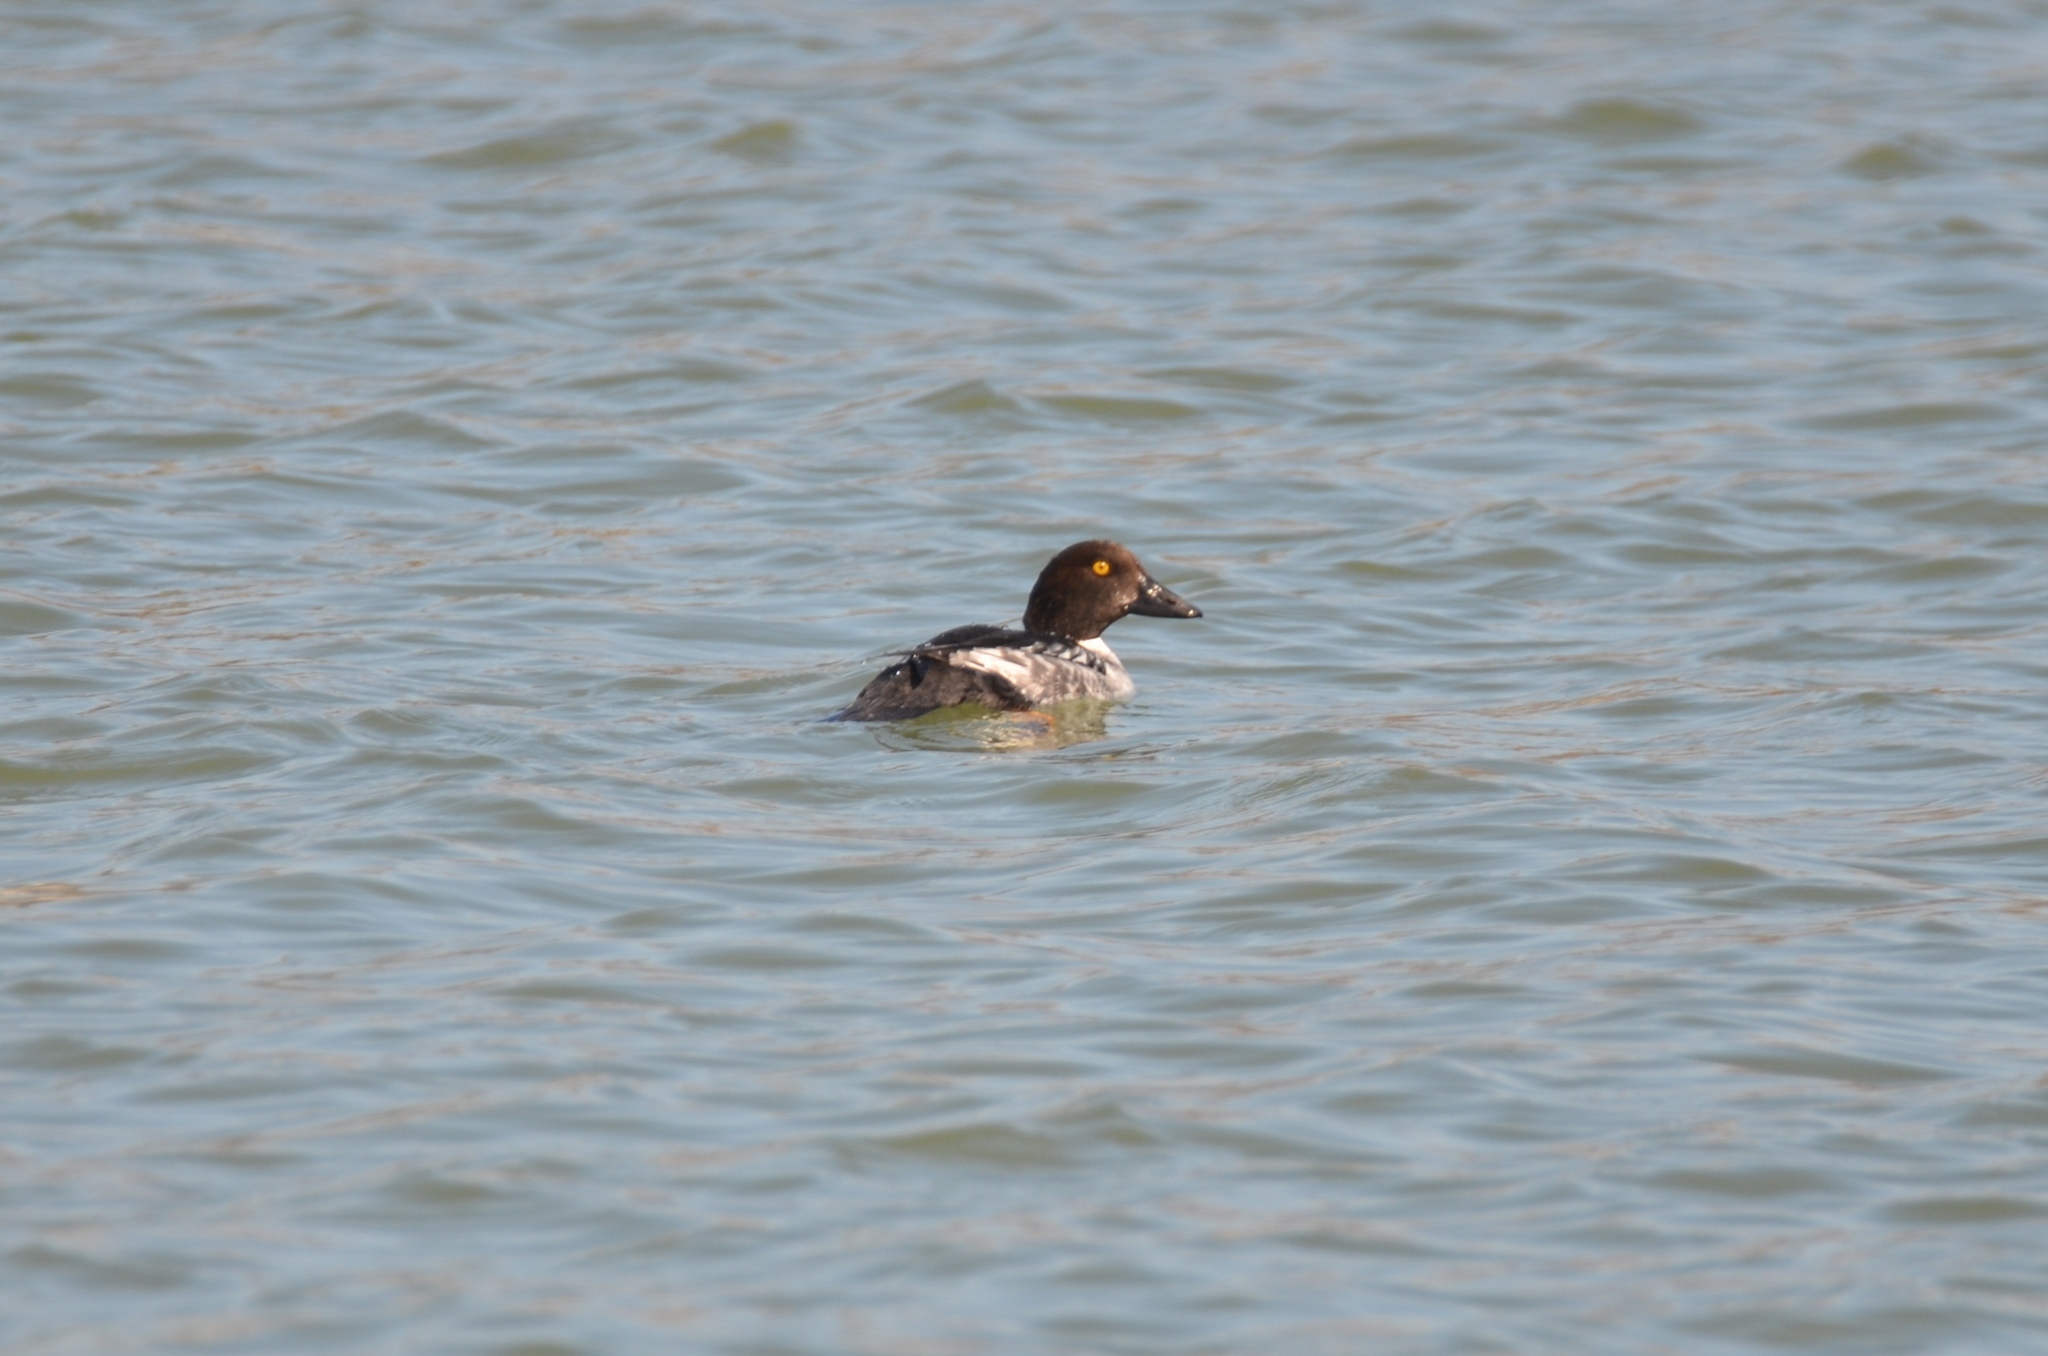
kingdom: Animalia
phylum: Chordata
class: Aves
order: Anseriformes
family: Anatidae
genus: Bucephala
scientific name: Bucephala clangula
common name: Common goldeneye
